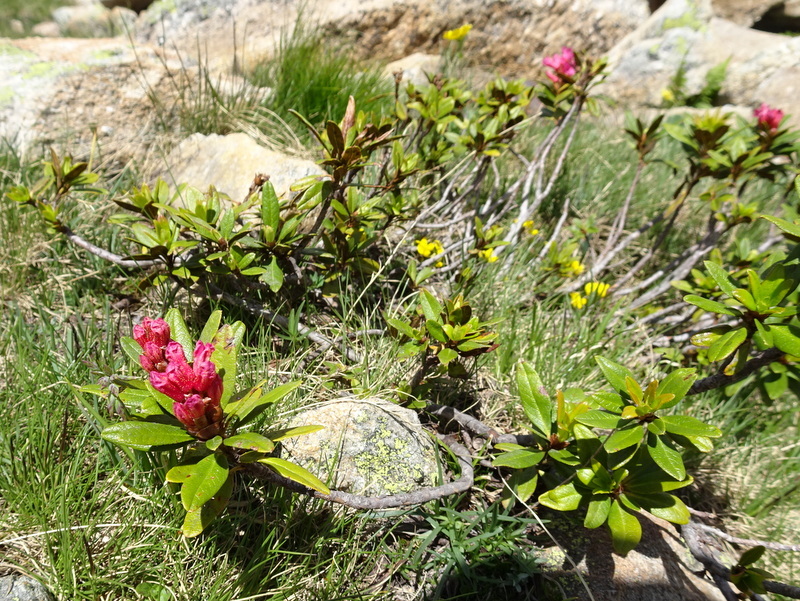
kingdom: Plantae
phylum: Tracheophyta
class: Magnoliopsida
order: Ericales
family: Ericaceae
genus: Rhododendron
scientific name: Rhododendron ferrugineum
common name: Alpenrose
